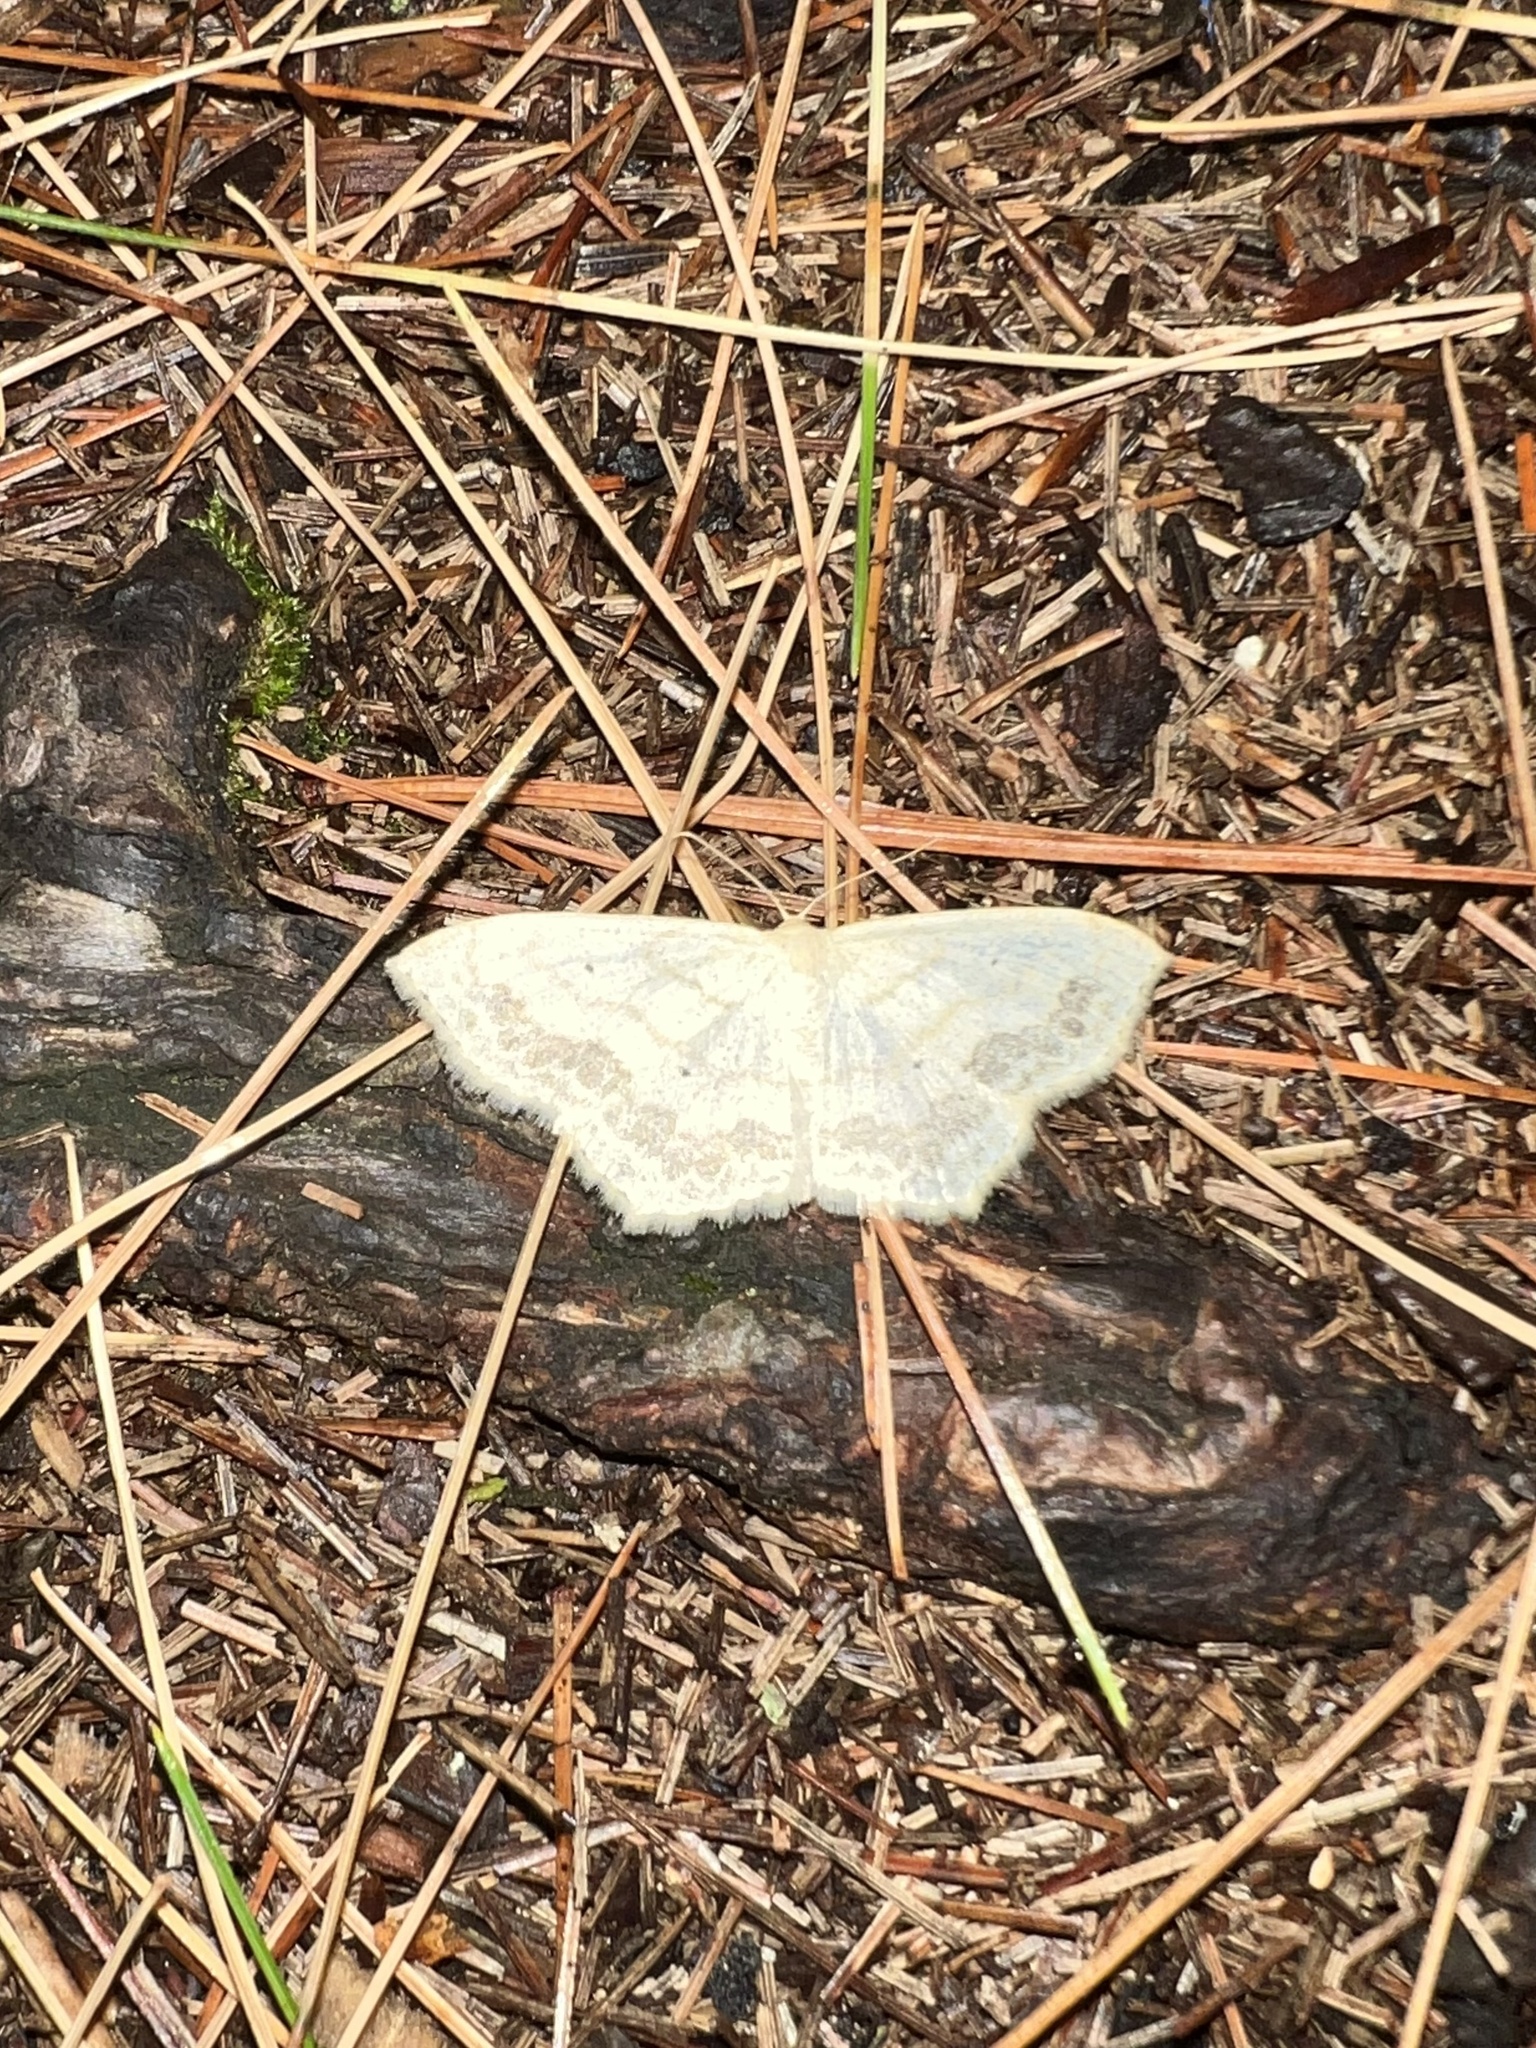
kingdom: Animalia
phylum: Arthropoda
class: Insecta
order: Lepidoptera
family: Geometridae
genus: Scopula
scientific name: Scopula limboundata
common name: Large lace border
